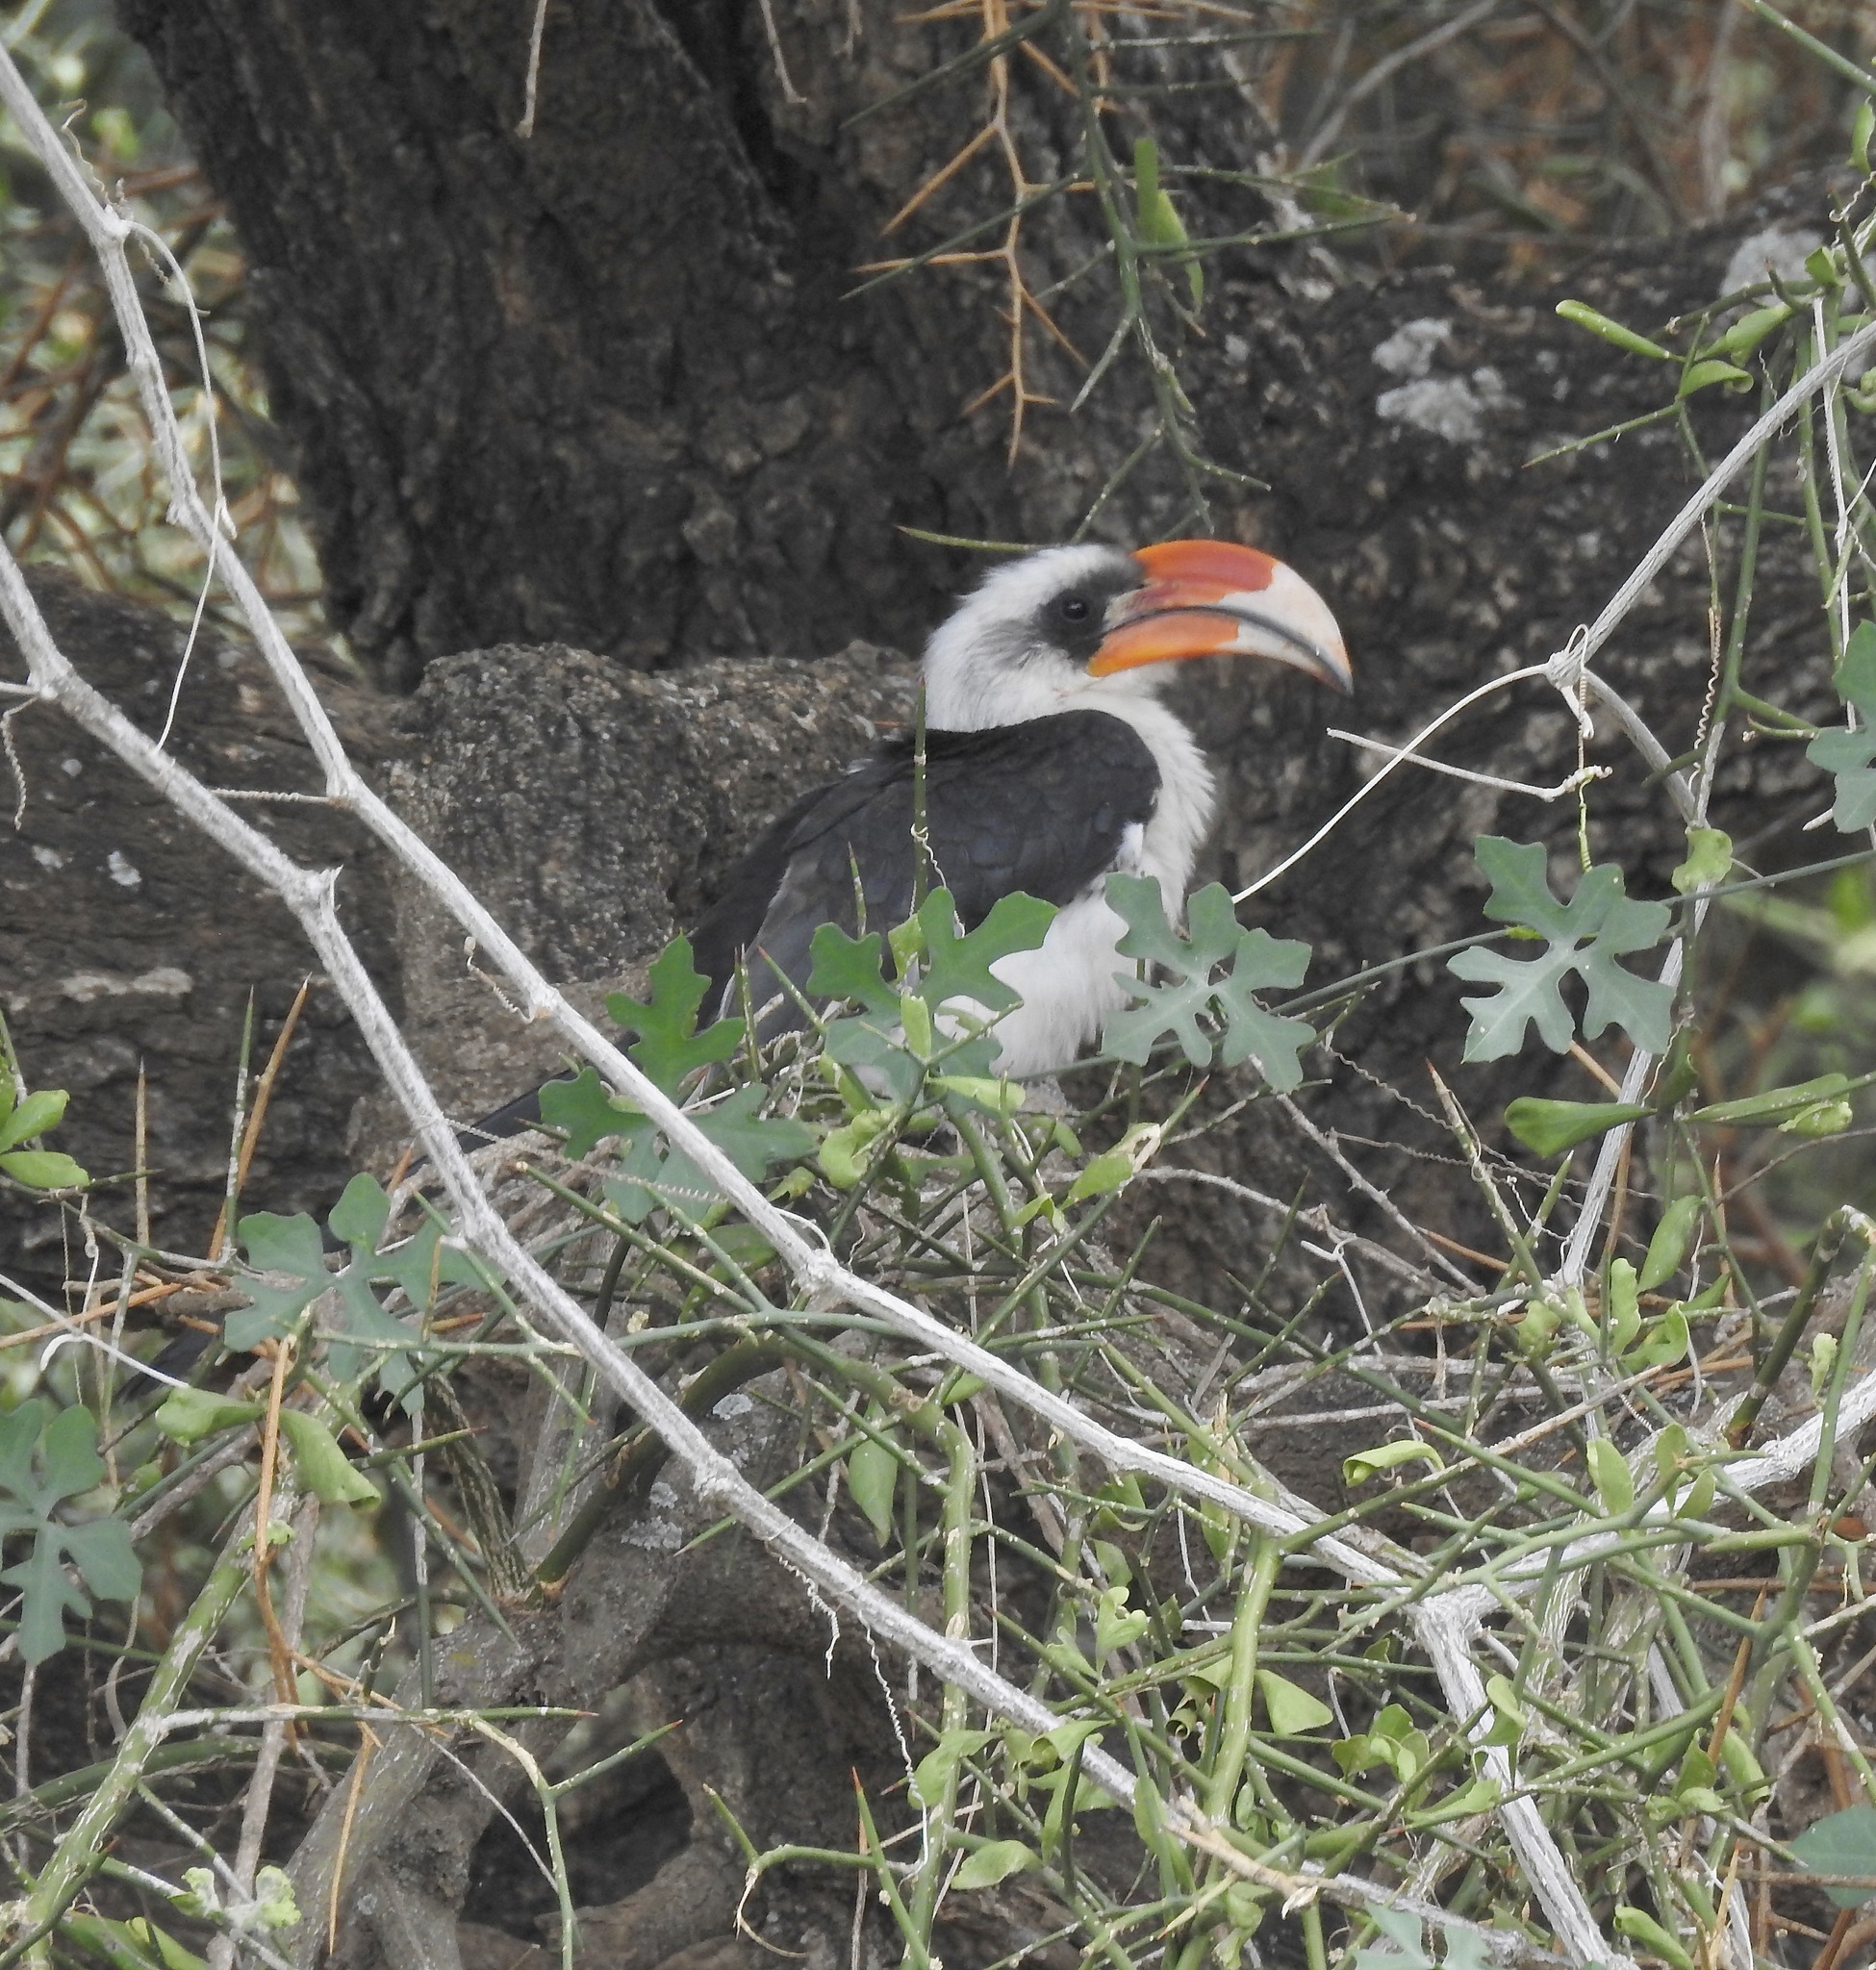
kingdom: Animalia
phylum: Chordata
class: Aves
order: Bucerotiformes
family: Bucerotidae
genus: Tockus
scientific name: Tockus deckeni
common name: Von der decken's hornbill
